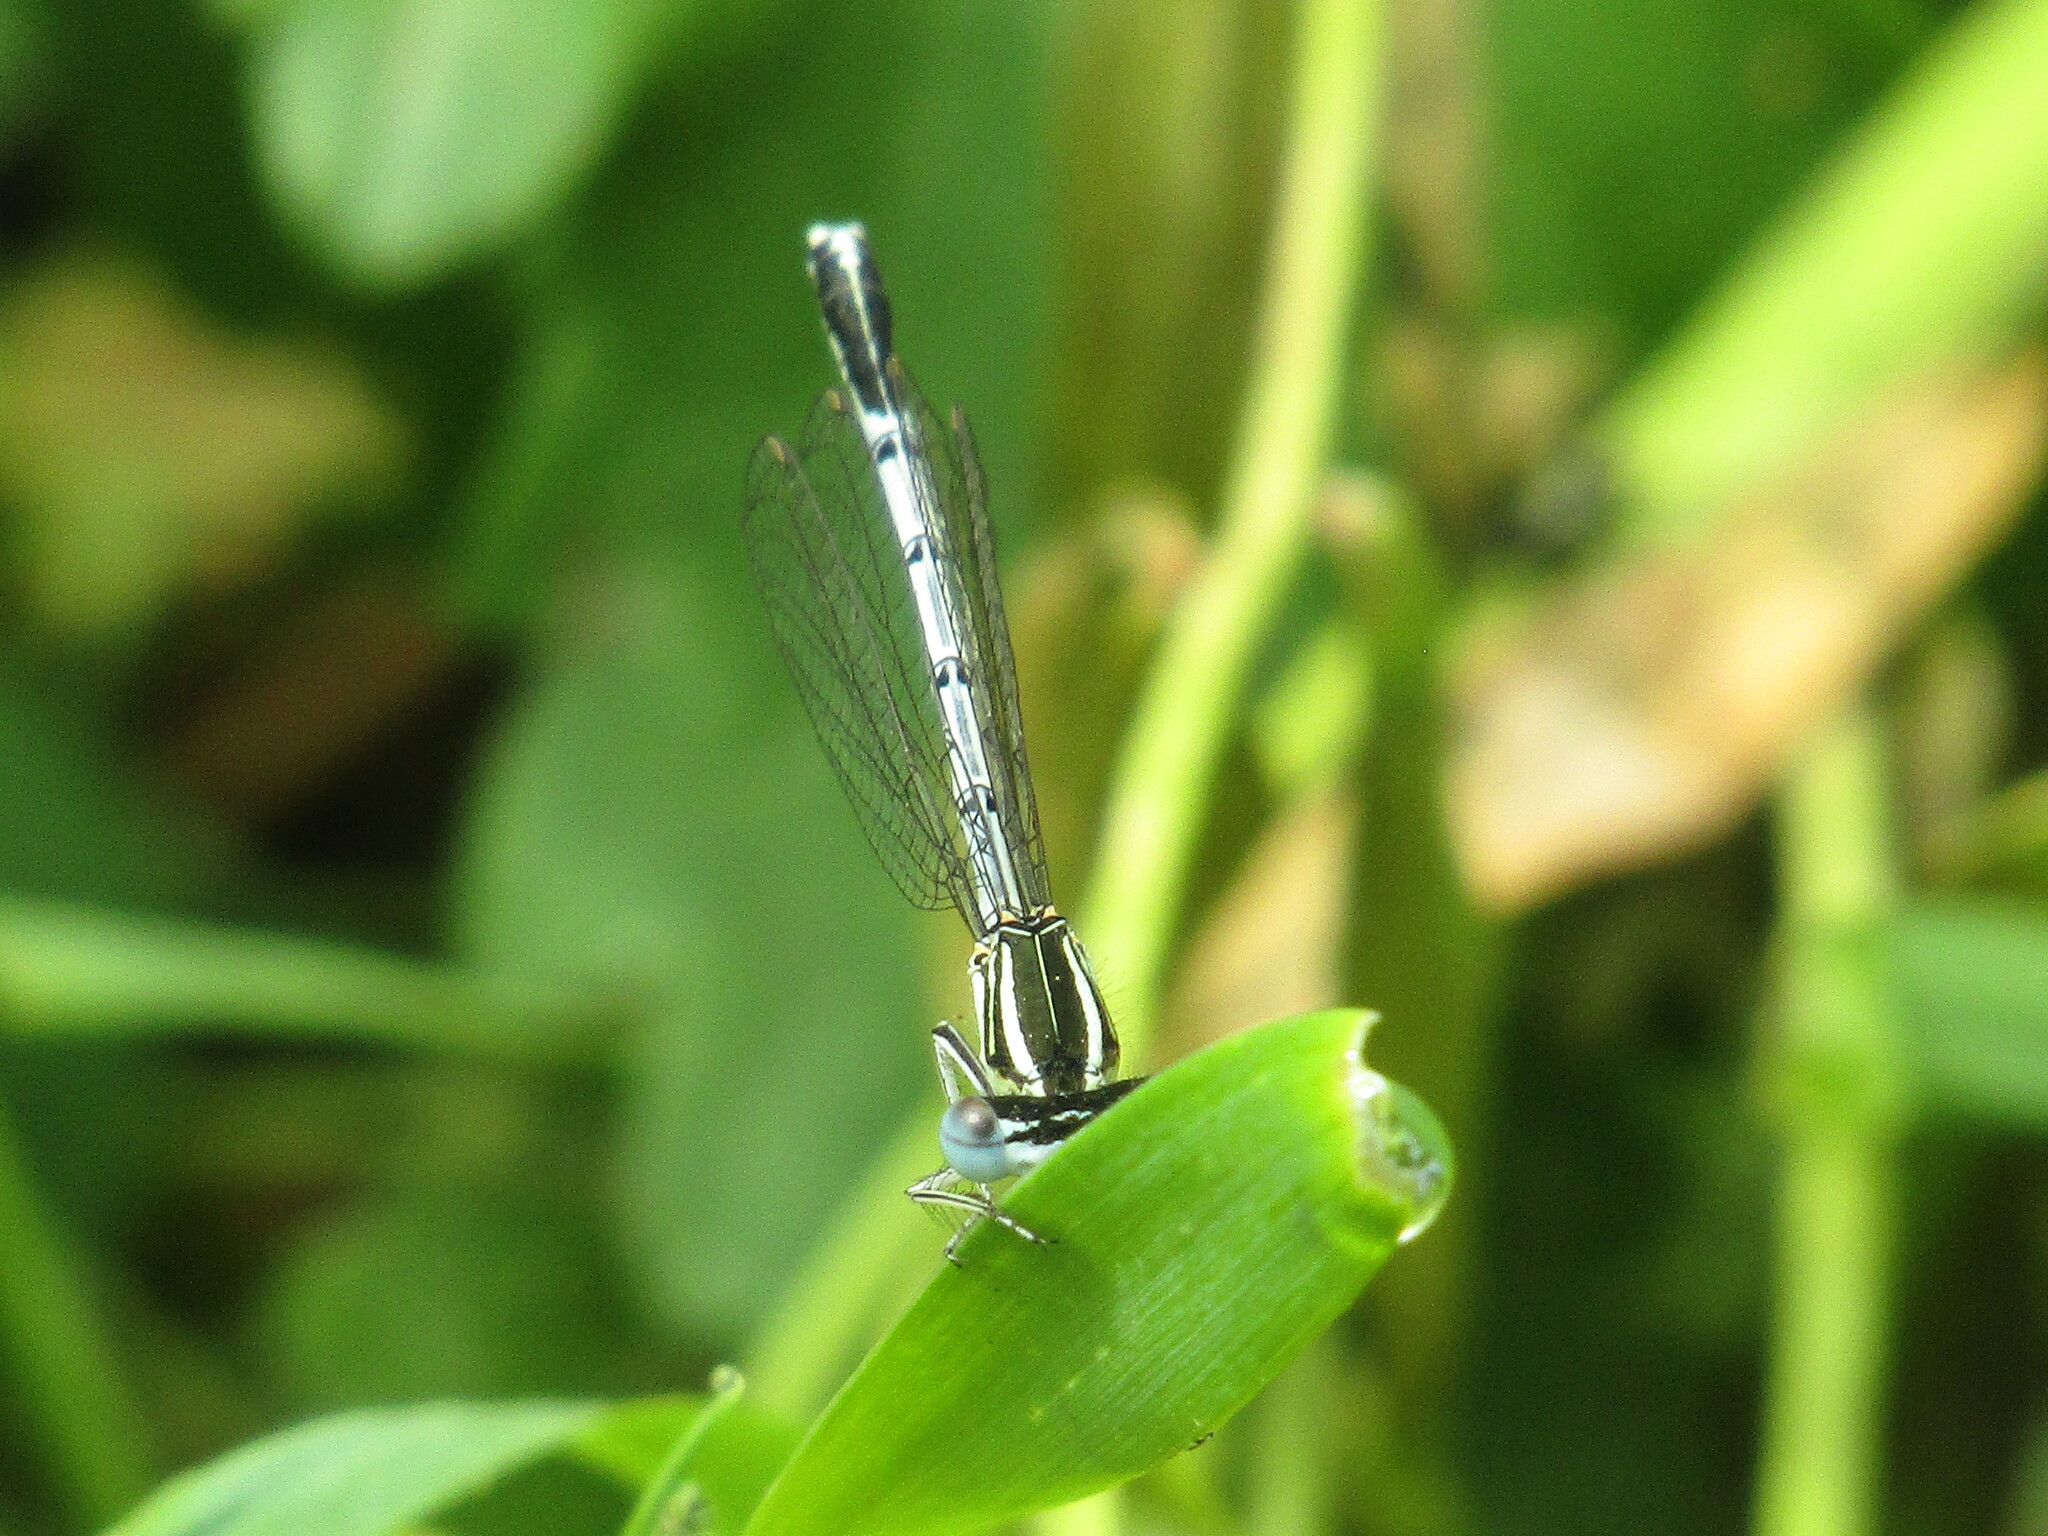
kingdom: Animalia
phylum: Arthropoda
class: Insecta
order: Odonata
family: Platycnemididae
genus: Platycnemis
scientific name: Platycnemis pennipes
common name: White-legged damselfly
